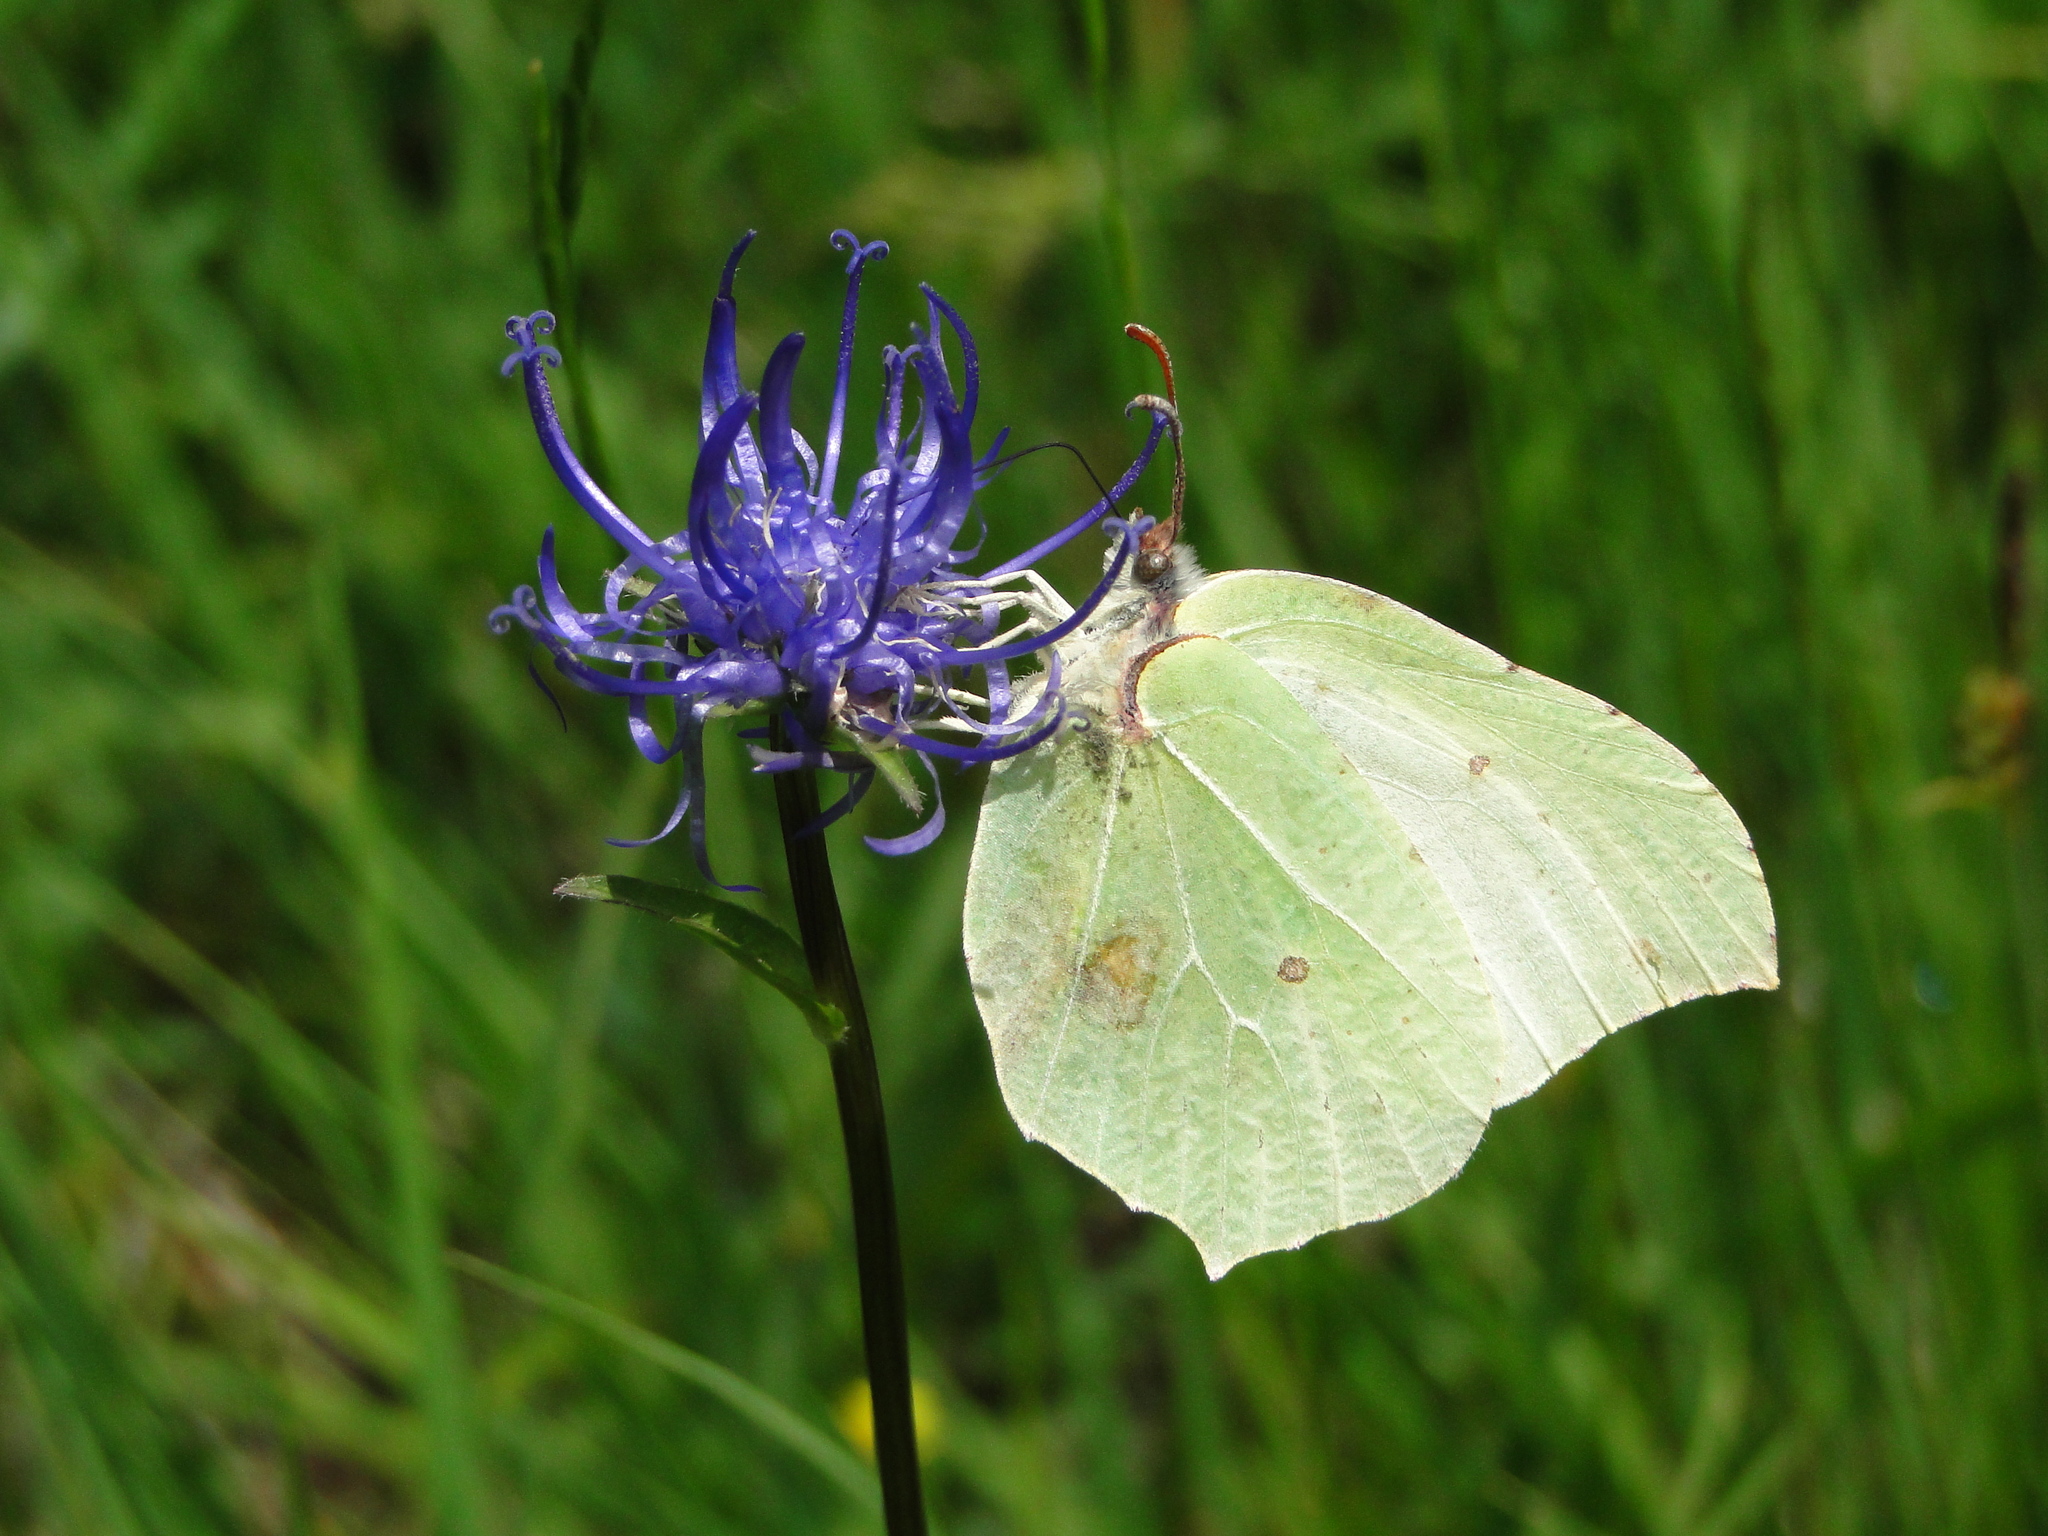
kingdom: Animalia
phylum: Arthropoda
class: Insecta
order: Lepidoptera
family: Pieridae
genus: Gonepteryx
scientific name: Gonepteryx rhamni
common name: Brimstone
